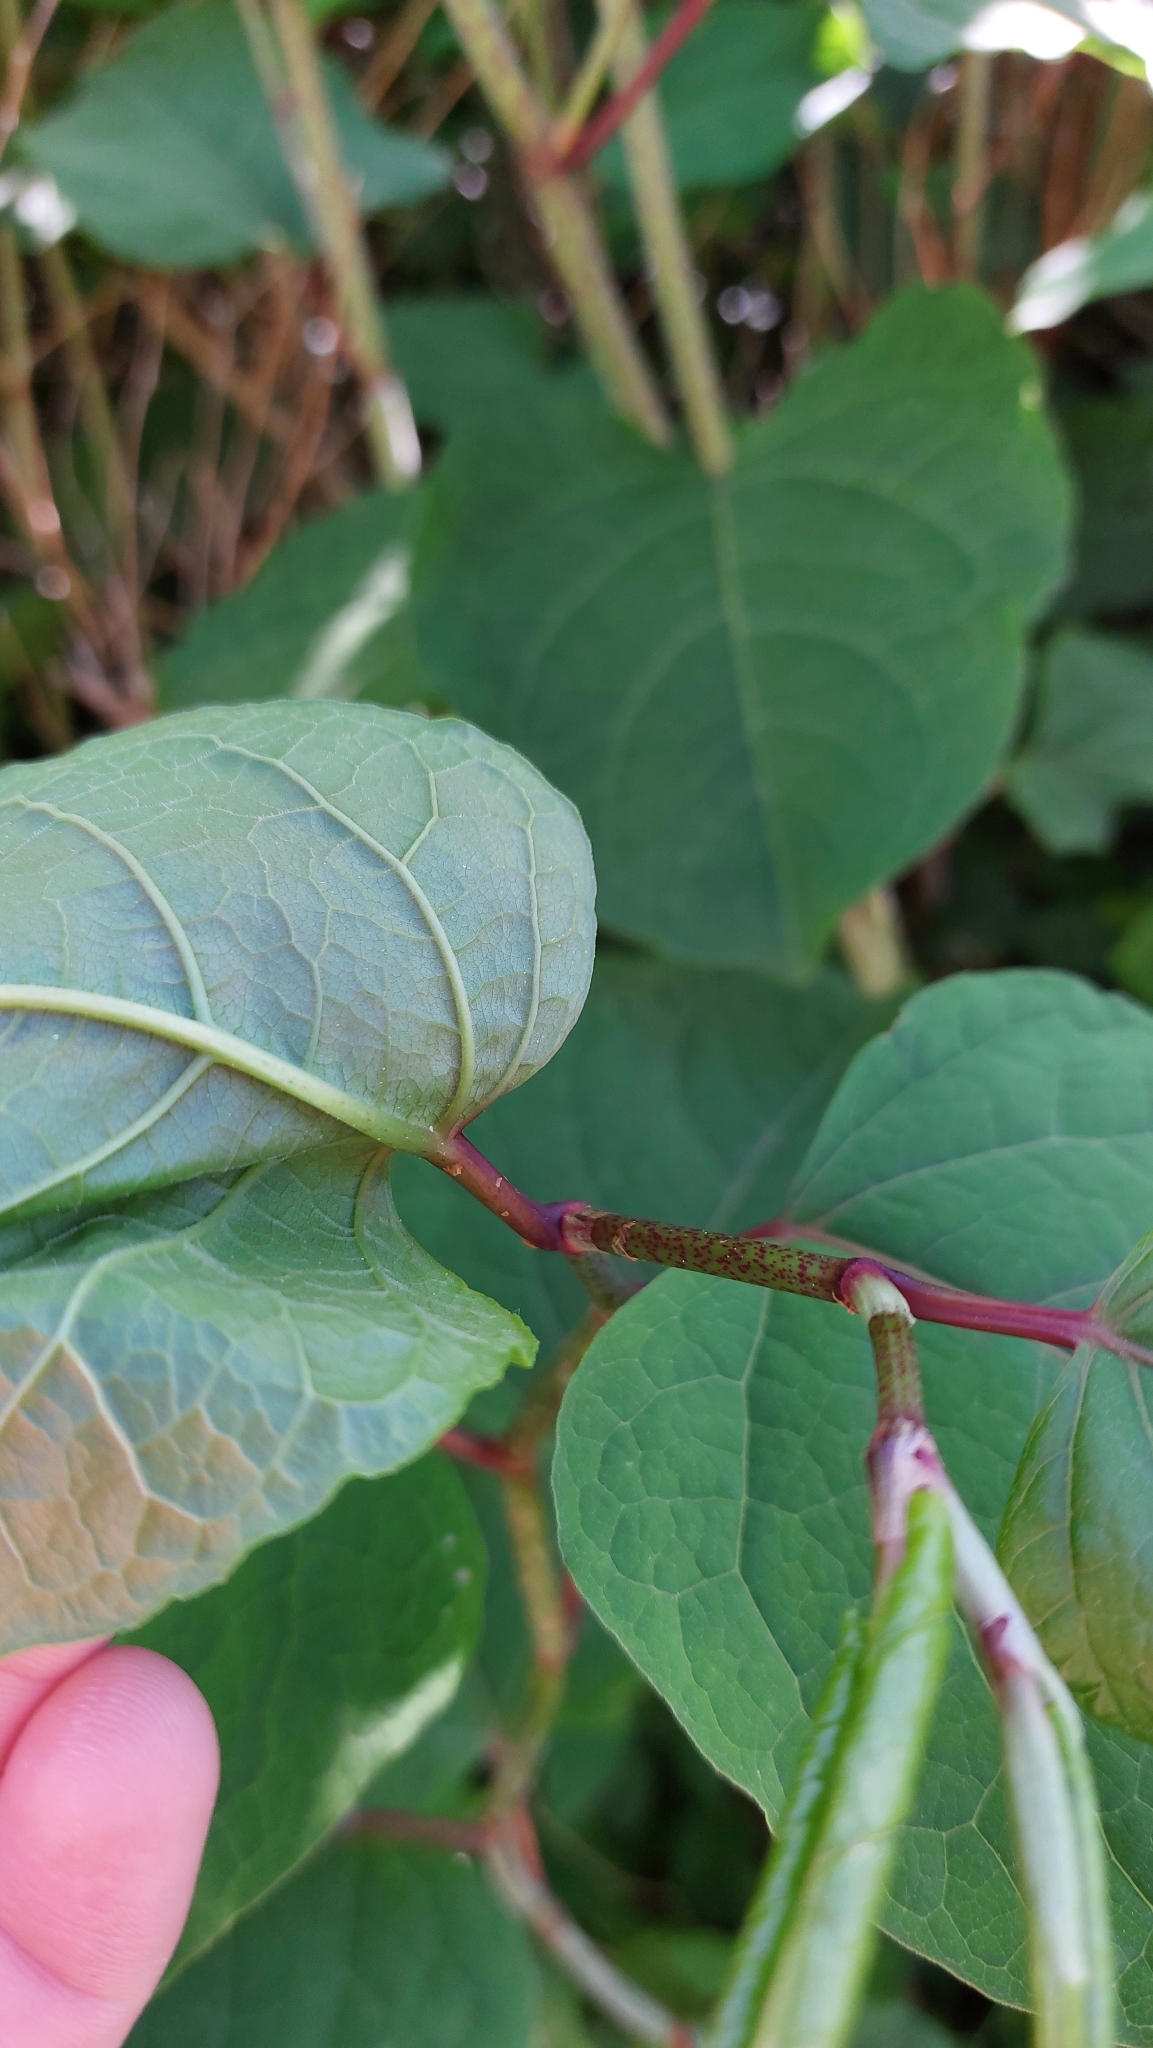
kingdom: Plantae
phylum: Tracheophyta
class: Magnoliopsida
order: Caryophyllales
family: Polygonaceae
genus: Reynoutria
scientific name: Reynoutria bohemica
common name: Bohemian knotweed
